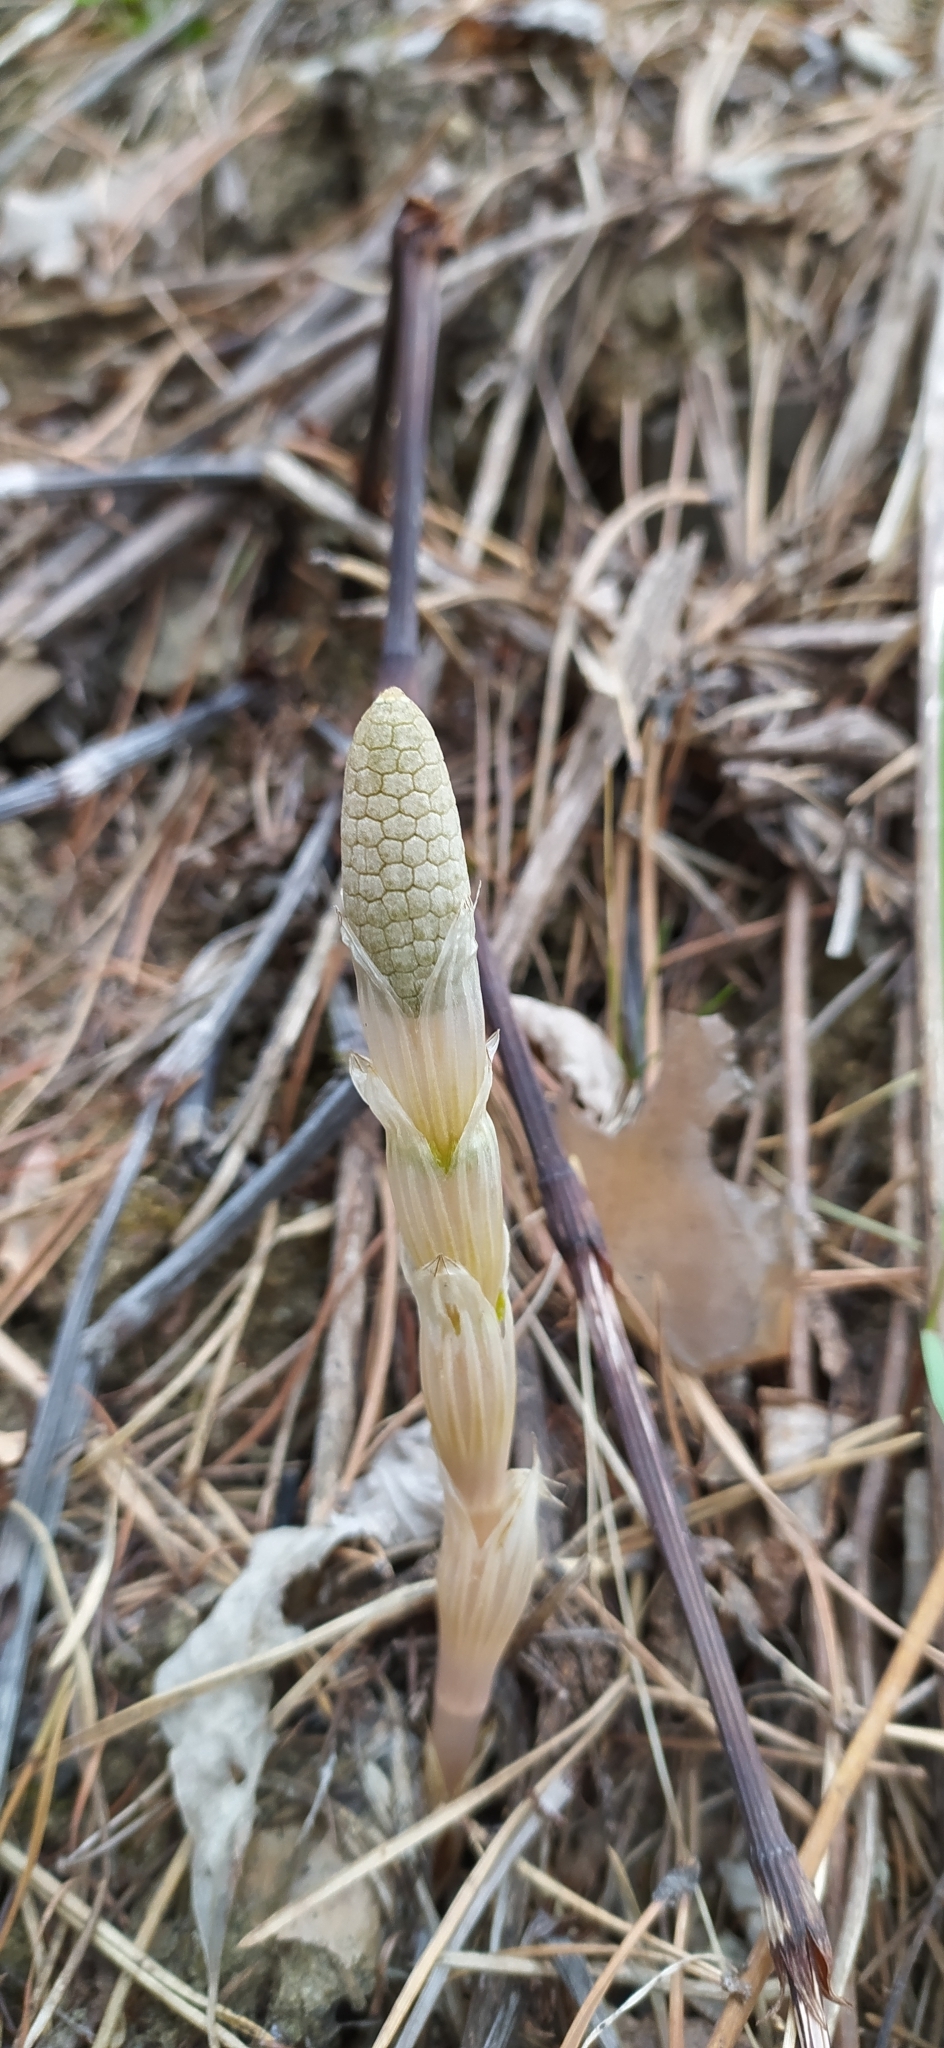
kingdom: Plantae
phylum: Tracheophyta
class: Polypodiopsida
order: Equisetales
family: Equisetaceae
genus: Equisetum
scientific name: Equisetum sylvaticum
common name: Wood horsetail
